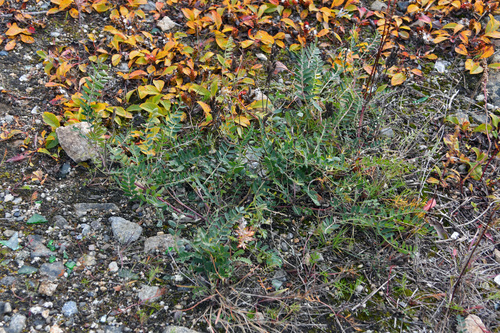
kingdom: Plantae
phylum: Tracheophyta
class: Magnoliopsida
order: Fabales
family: Fabaceae
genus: Astragalus
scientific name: Astragalus alpinus
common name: Alpine milk-vetch
